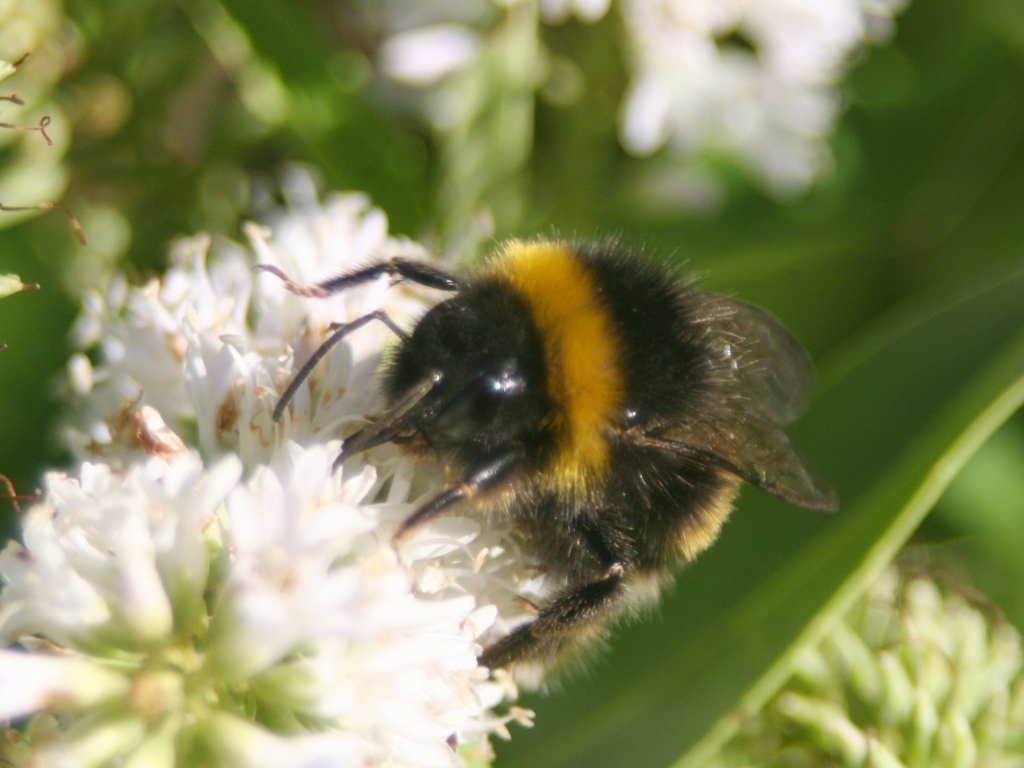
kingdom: Animalia
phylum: Arthropoda
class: Insecta
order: Hymenoptera
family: Apidae
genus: Bombus
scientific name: Bombus terrestris
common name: Buff-tailed bumblebee
